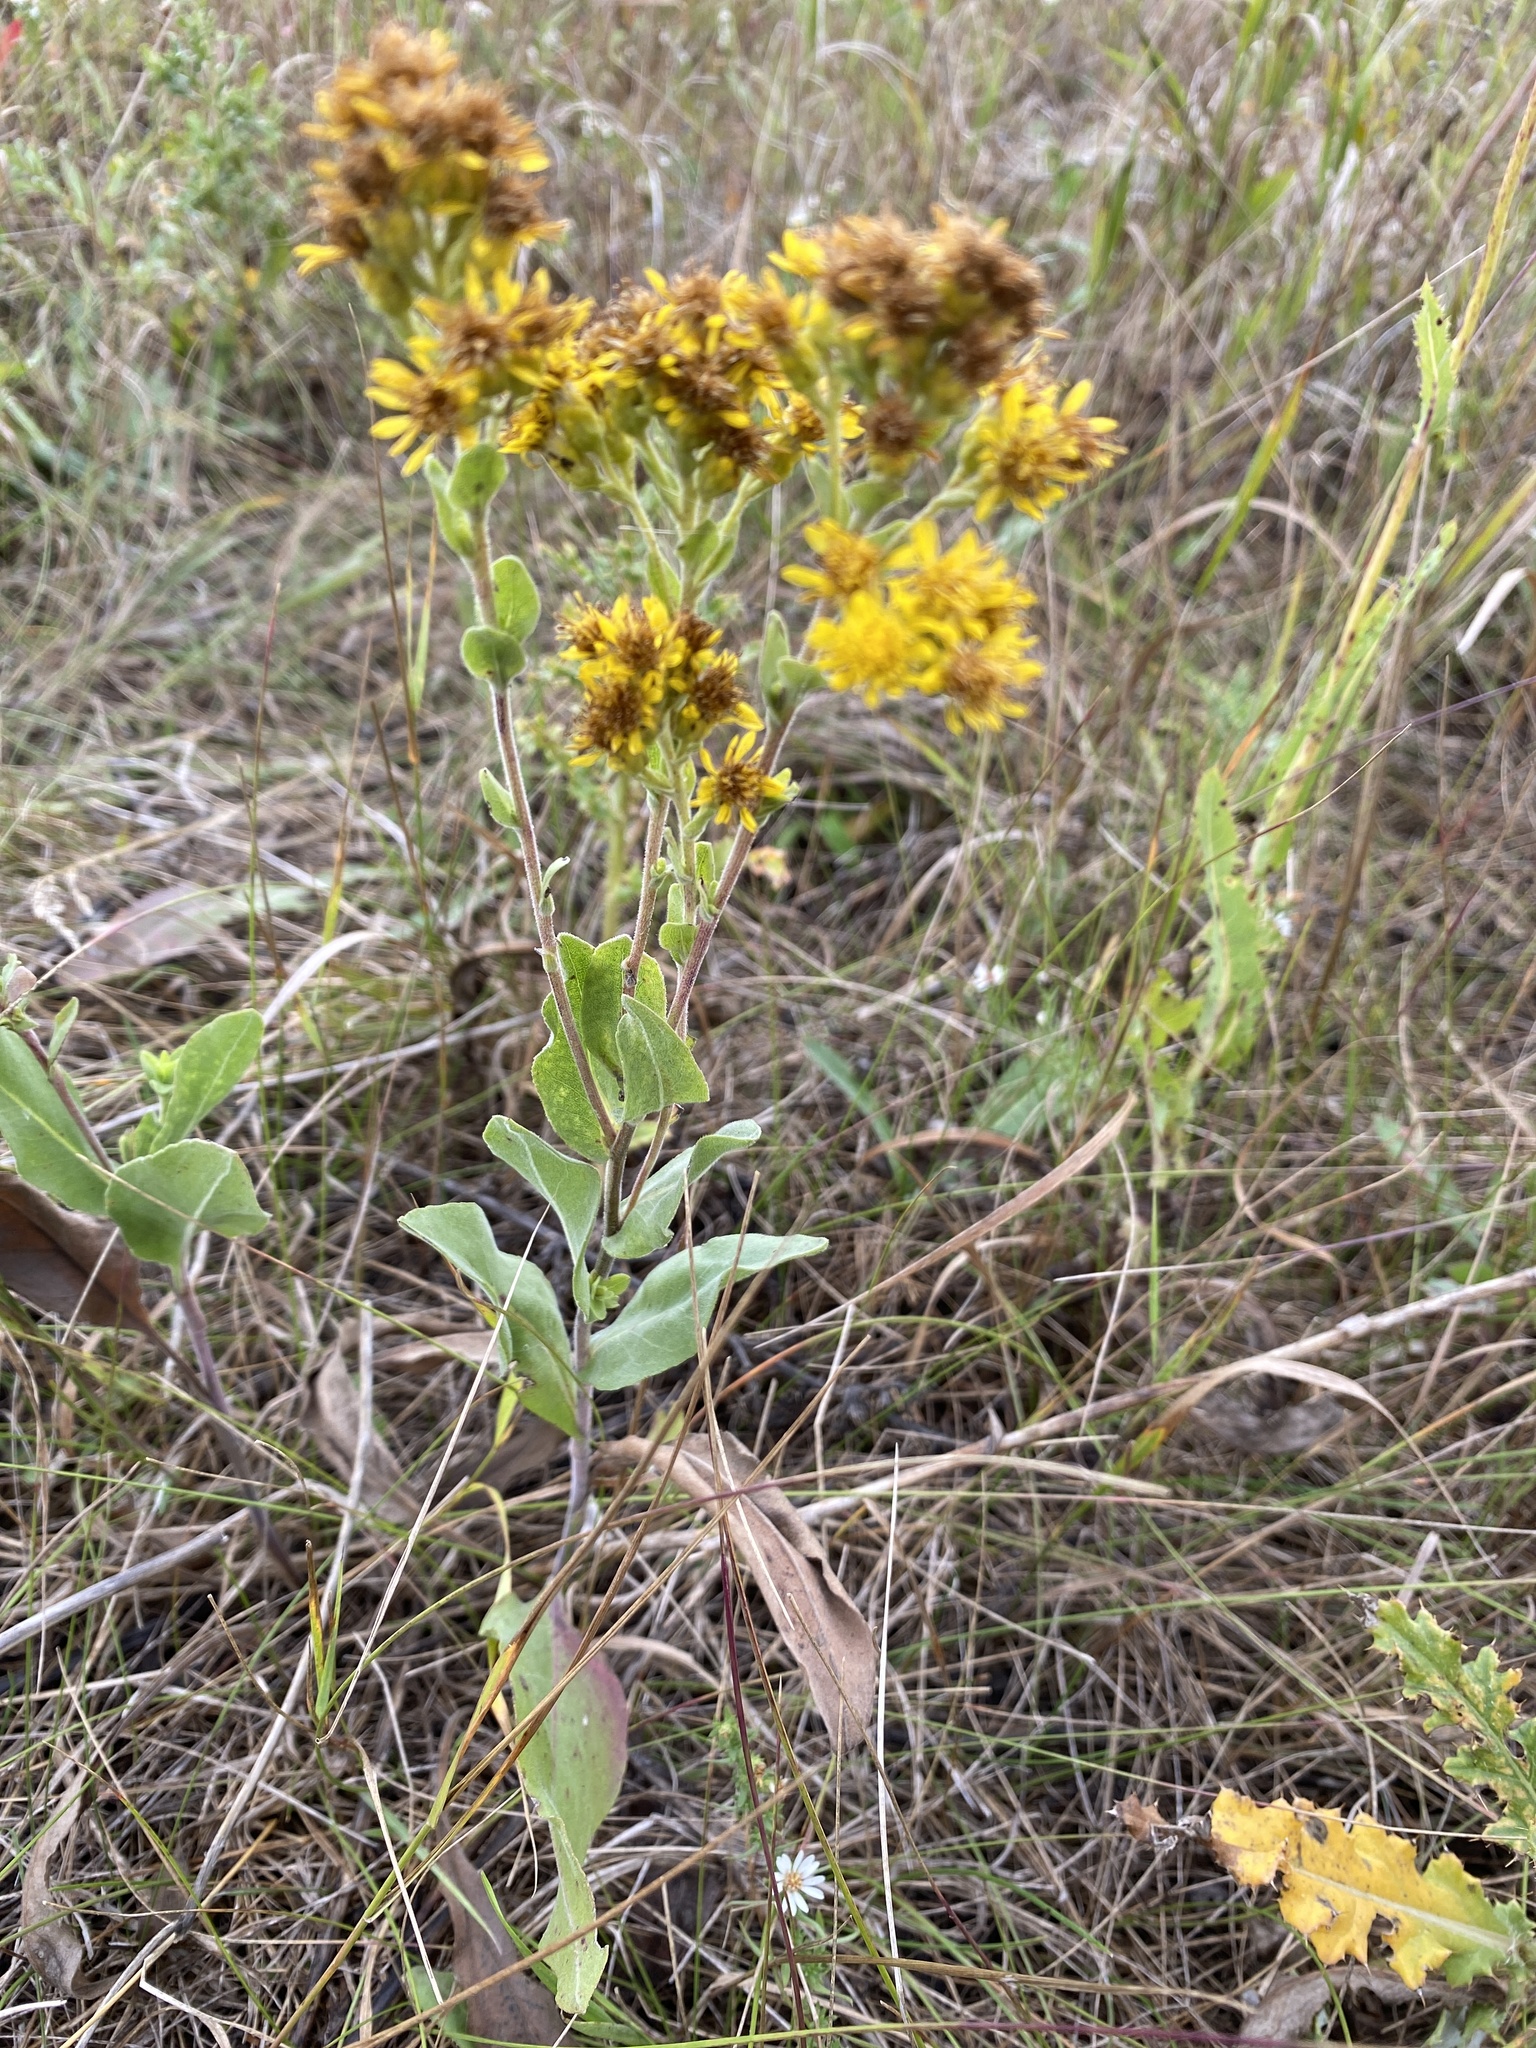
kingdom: Plantae
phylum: Tracheophyta
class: Magnoliopsida
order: Asterales
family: Asteraceae
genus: Solidago
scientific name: Solidago rigida
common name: Rigid goldenrod
